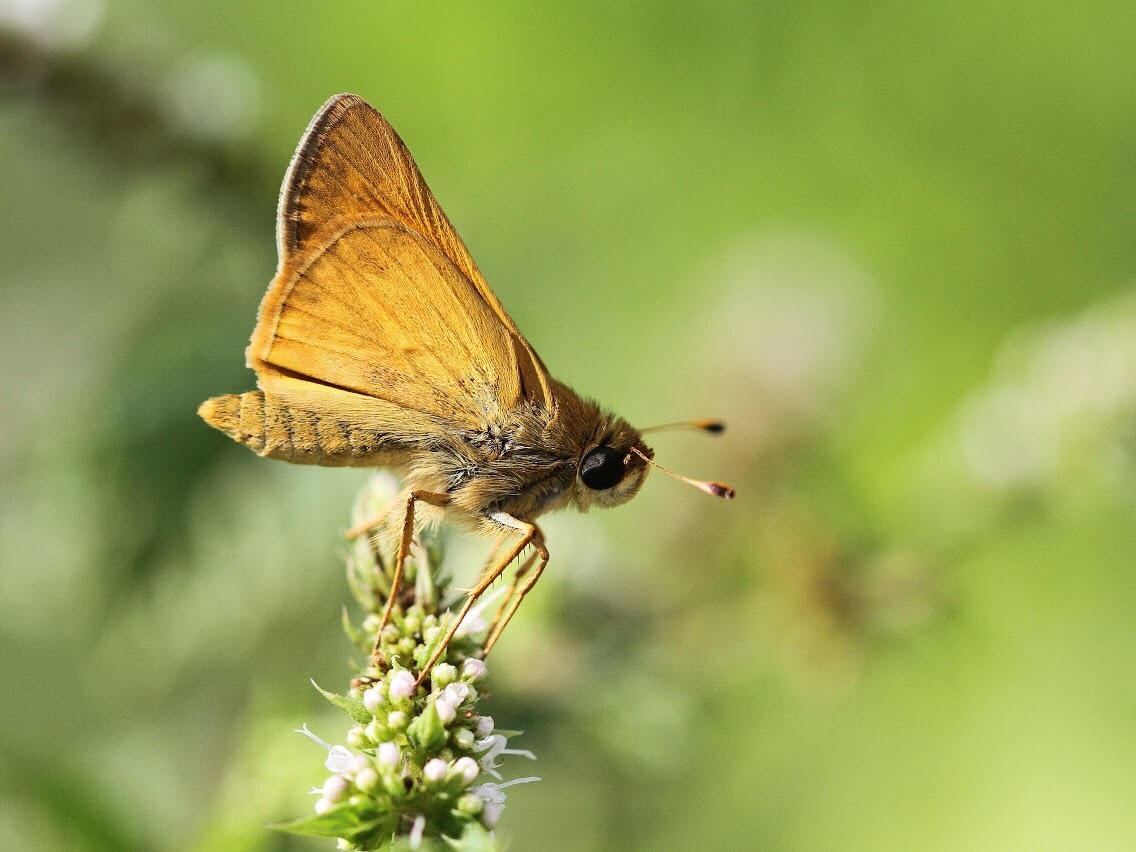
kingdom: Animalia
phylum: Arthropoda
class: Insecta
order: Lepidoptera
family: Hesperiidae
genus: Atalopedes
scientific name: Atalopedes
